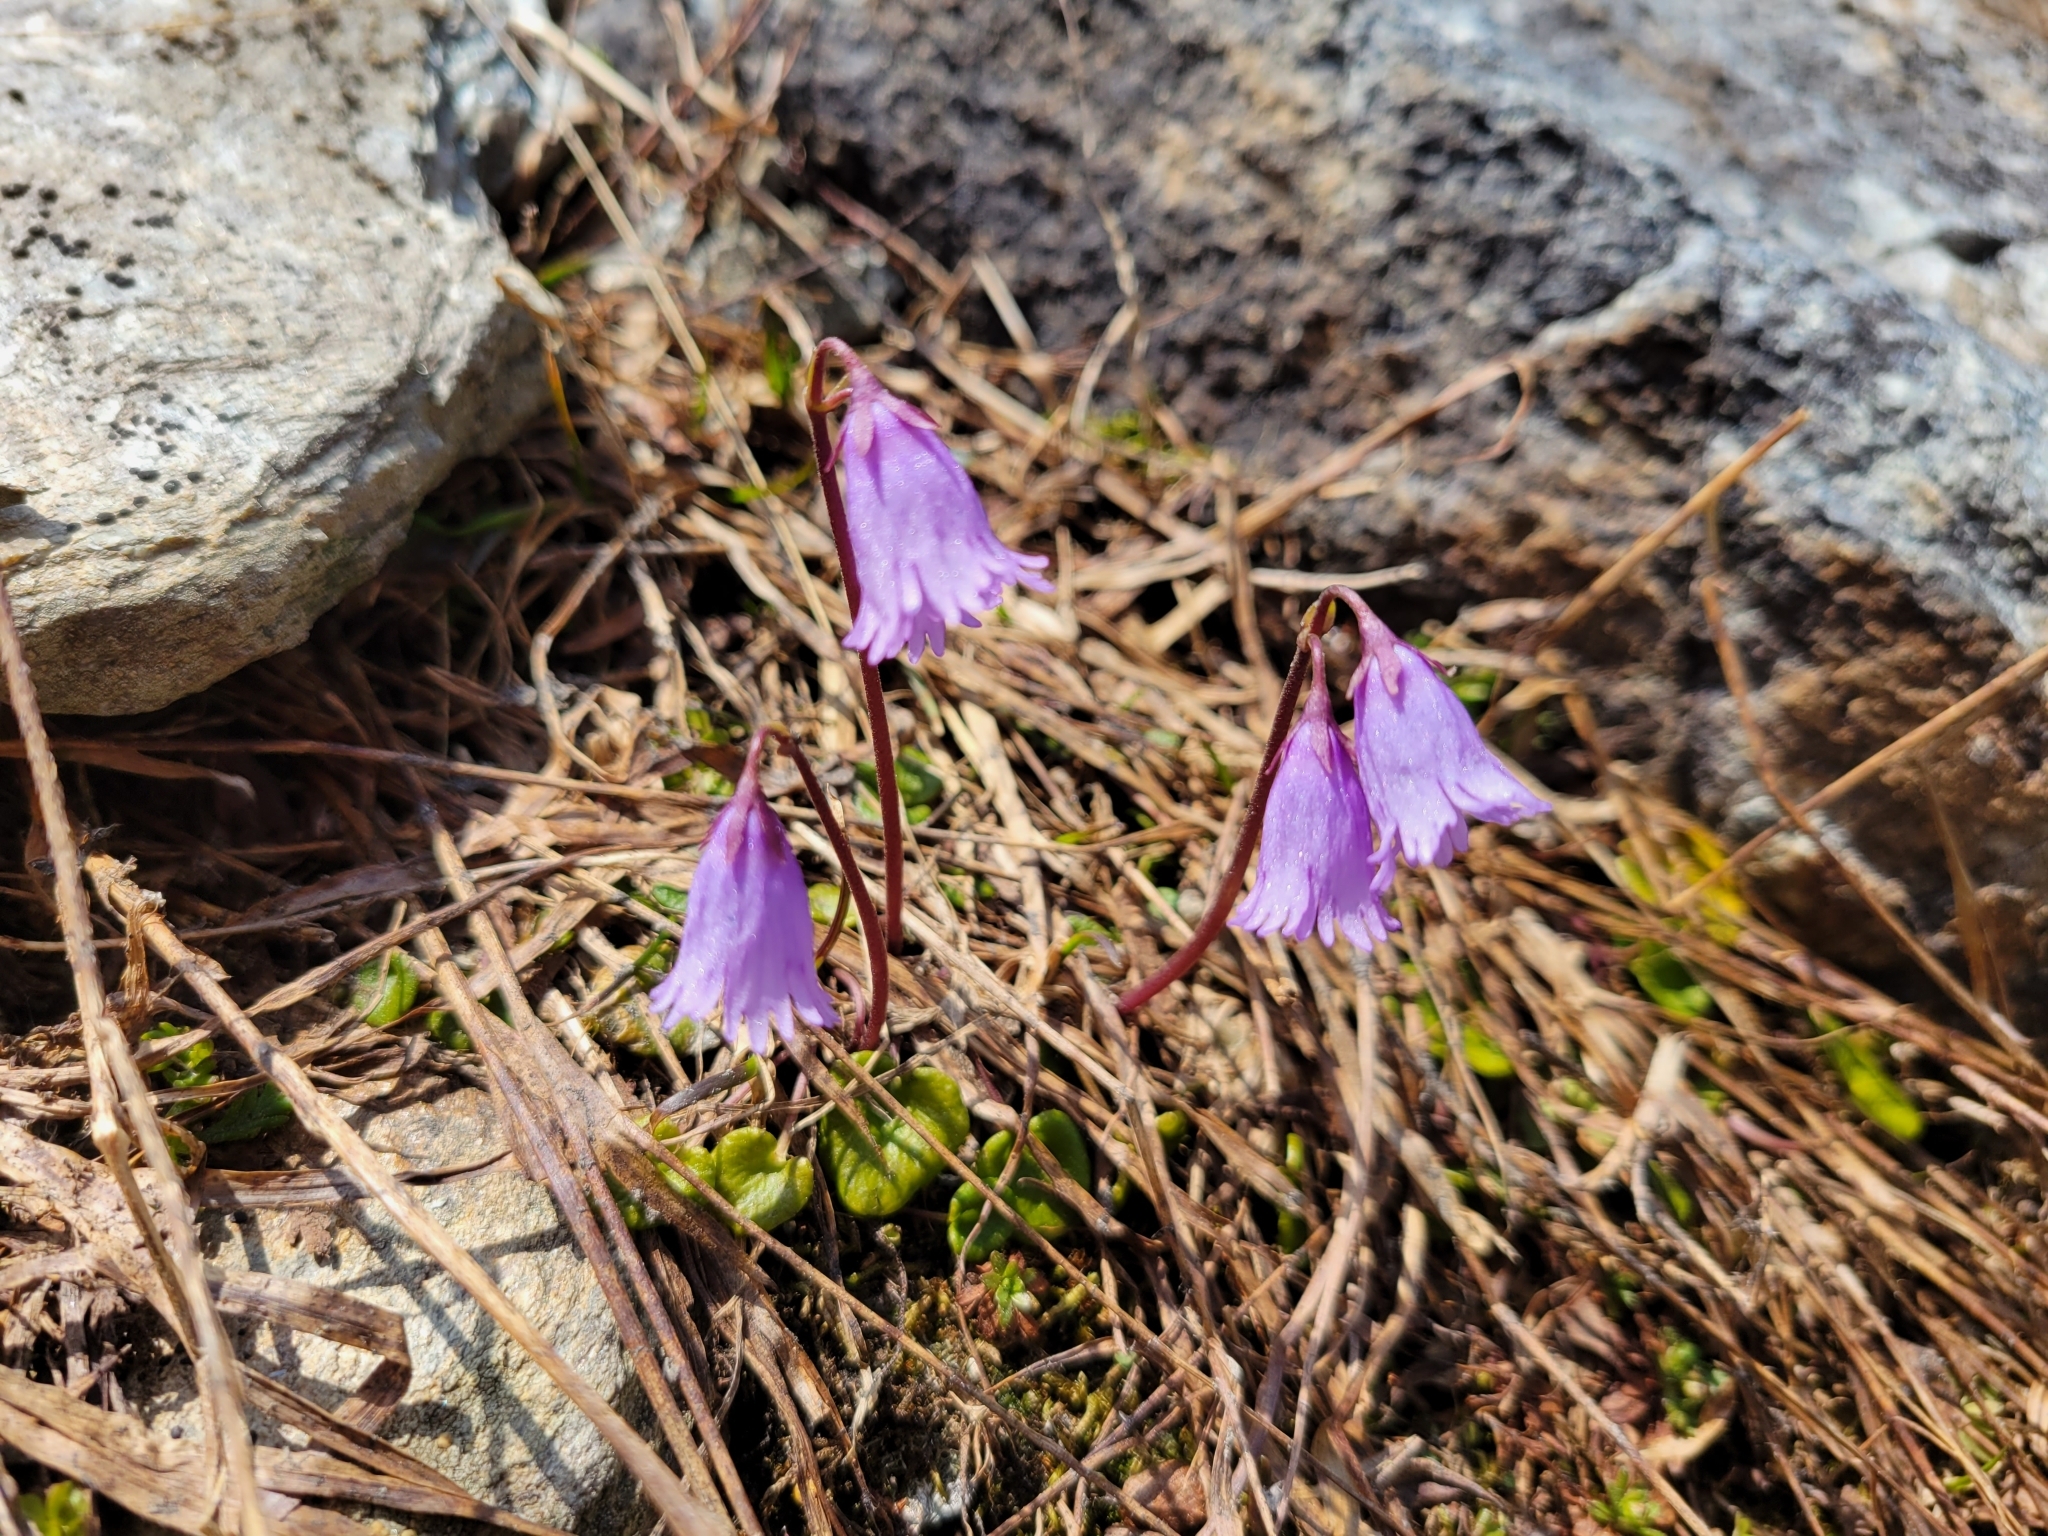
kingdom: Plantae
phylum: Tracheophyta
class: Magnoliopsida
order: Ericales
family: Primulaceae
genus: Soldanella
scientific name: Soldanella alpicola
